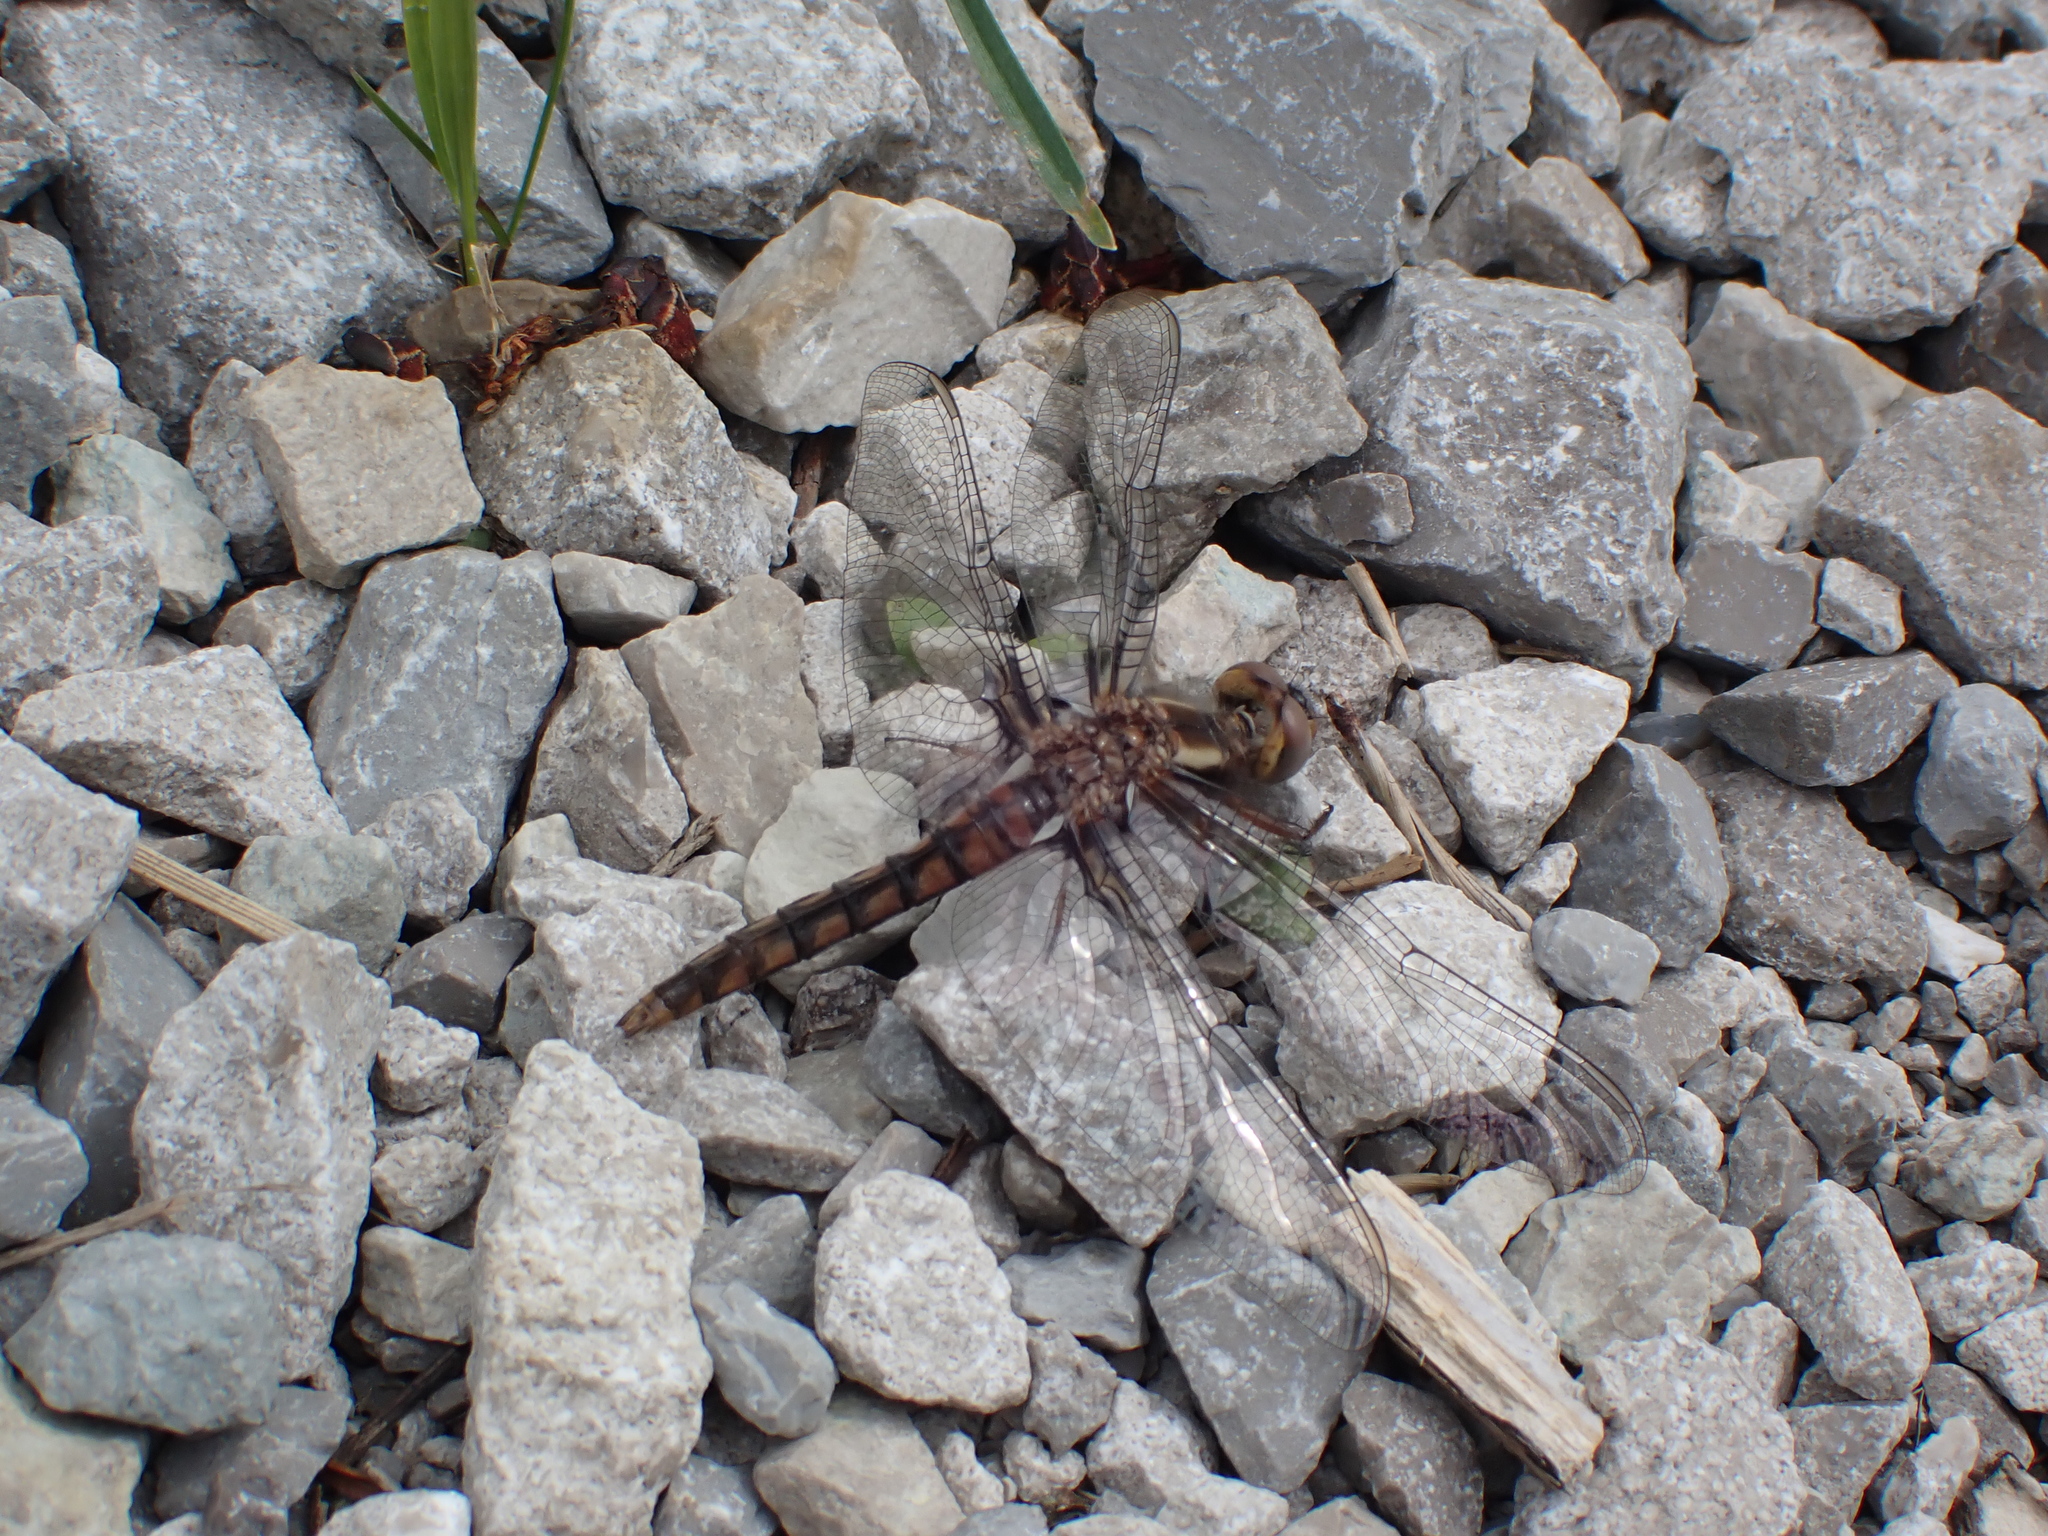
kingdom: Animalia
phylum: Arthropoda
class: Insecta
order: Odonata
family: Libellulidae
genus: Ladona
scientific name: Ladona deplanata
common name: Blue corporal
